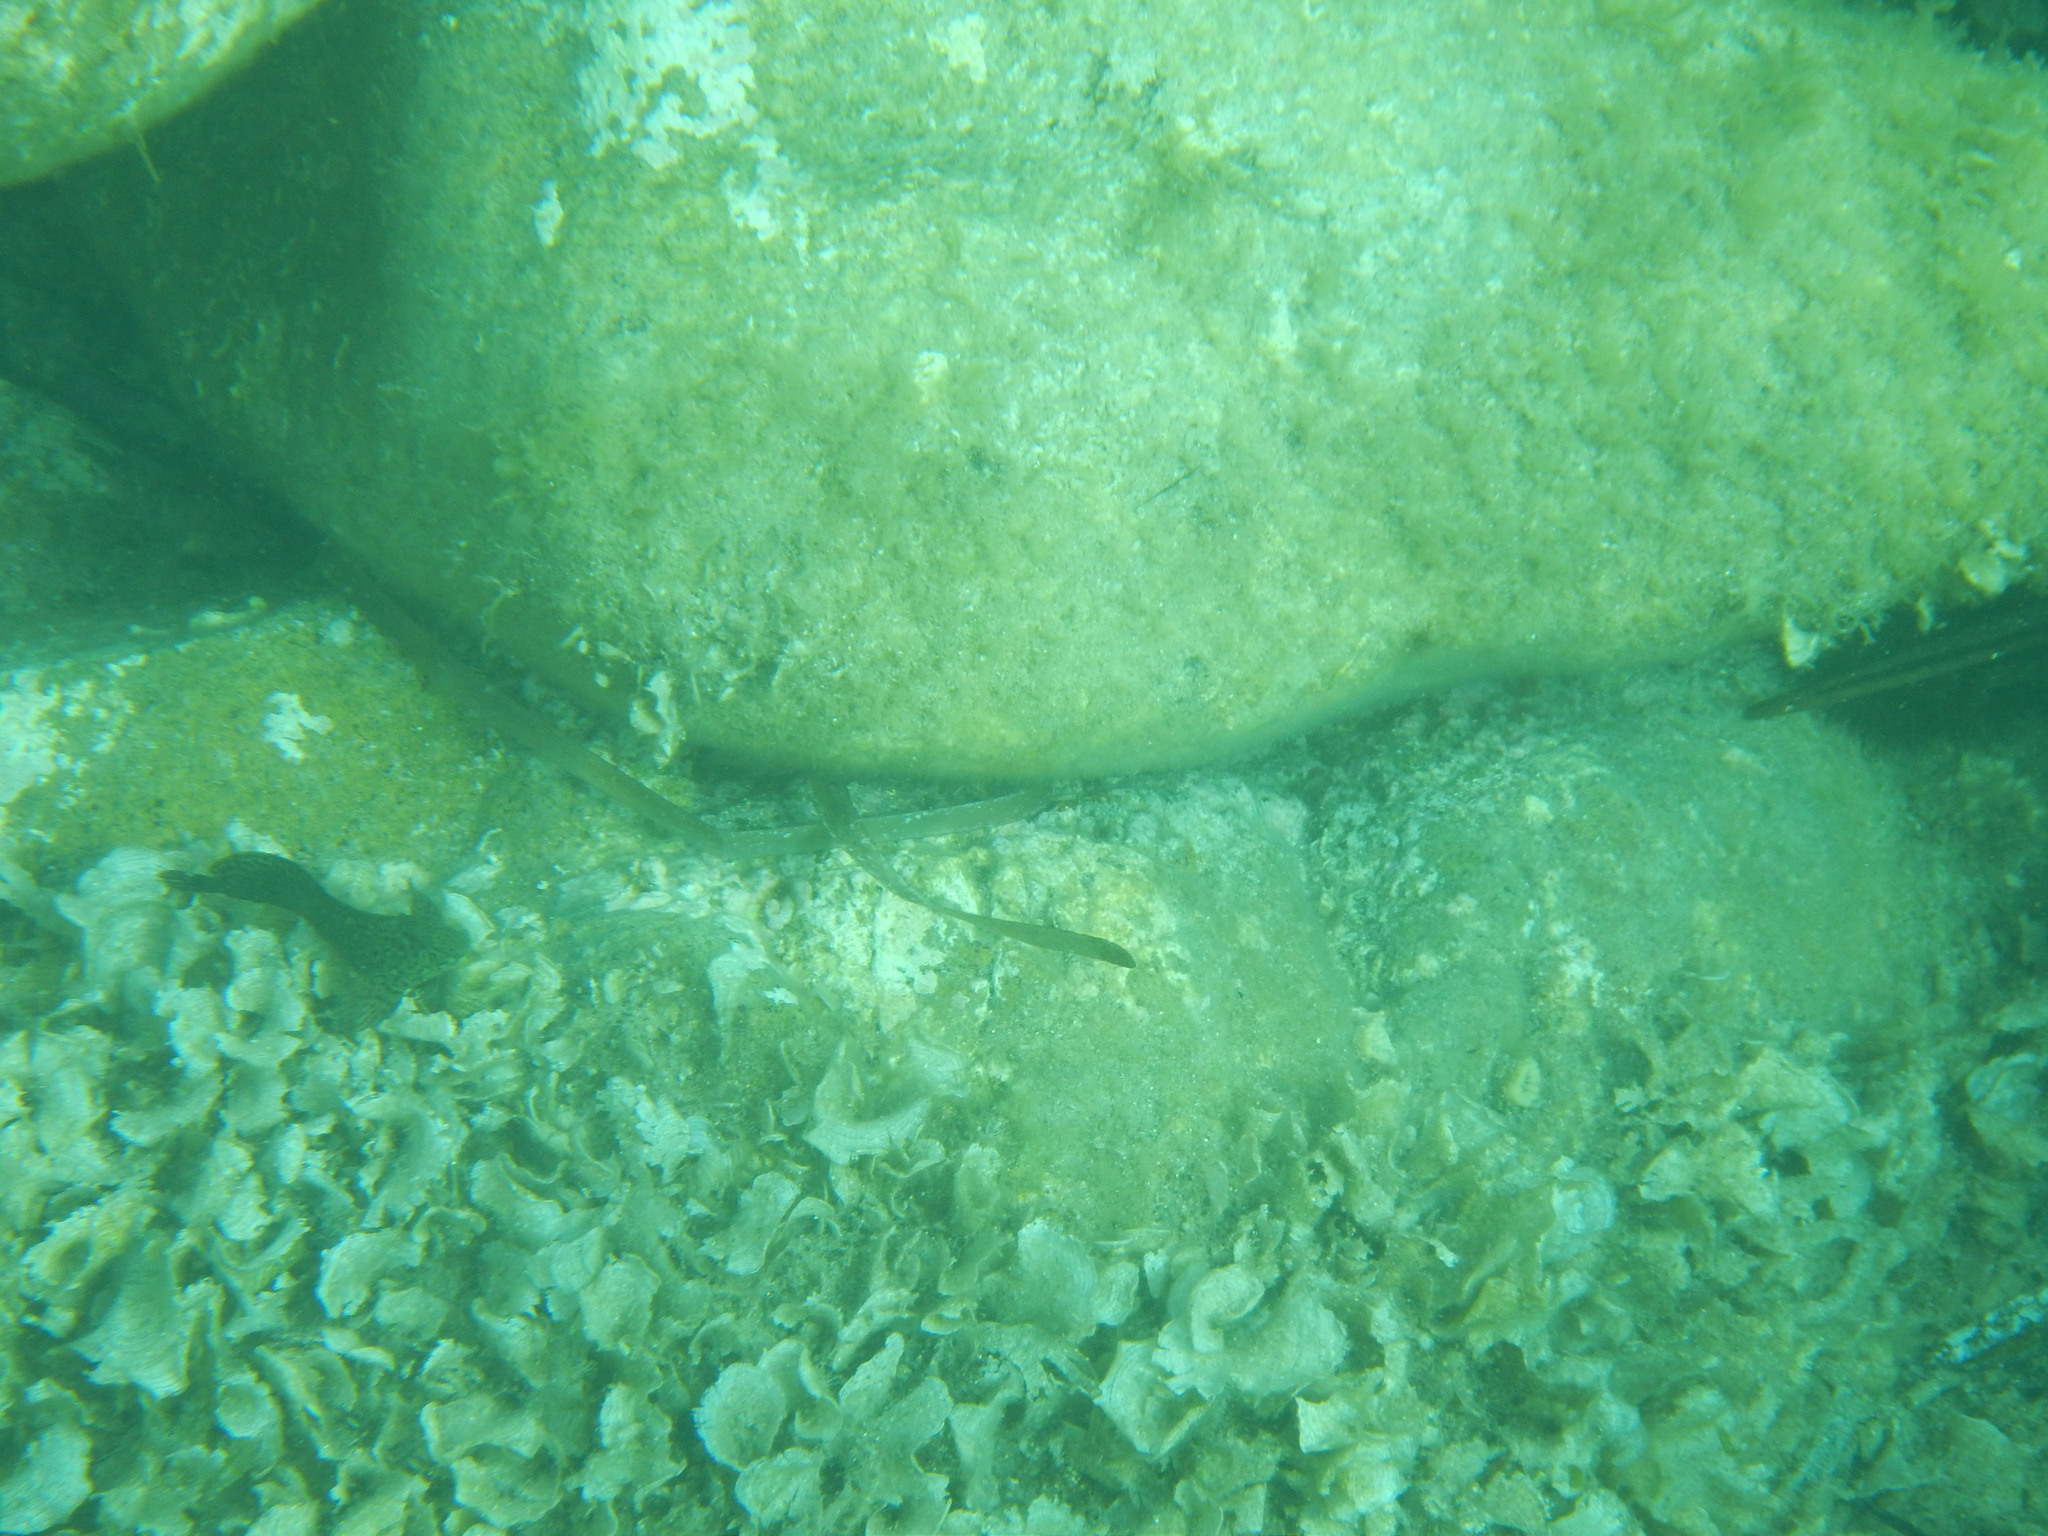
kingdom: Animalia
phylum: Chordata
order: Perciformes
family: Blenniidae
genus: Parablennius
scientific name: Parablennius sanguinolentus
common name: Black sea blenny
